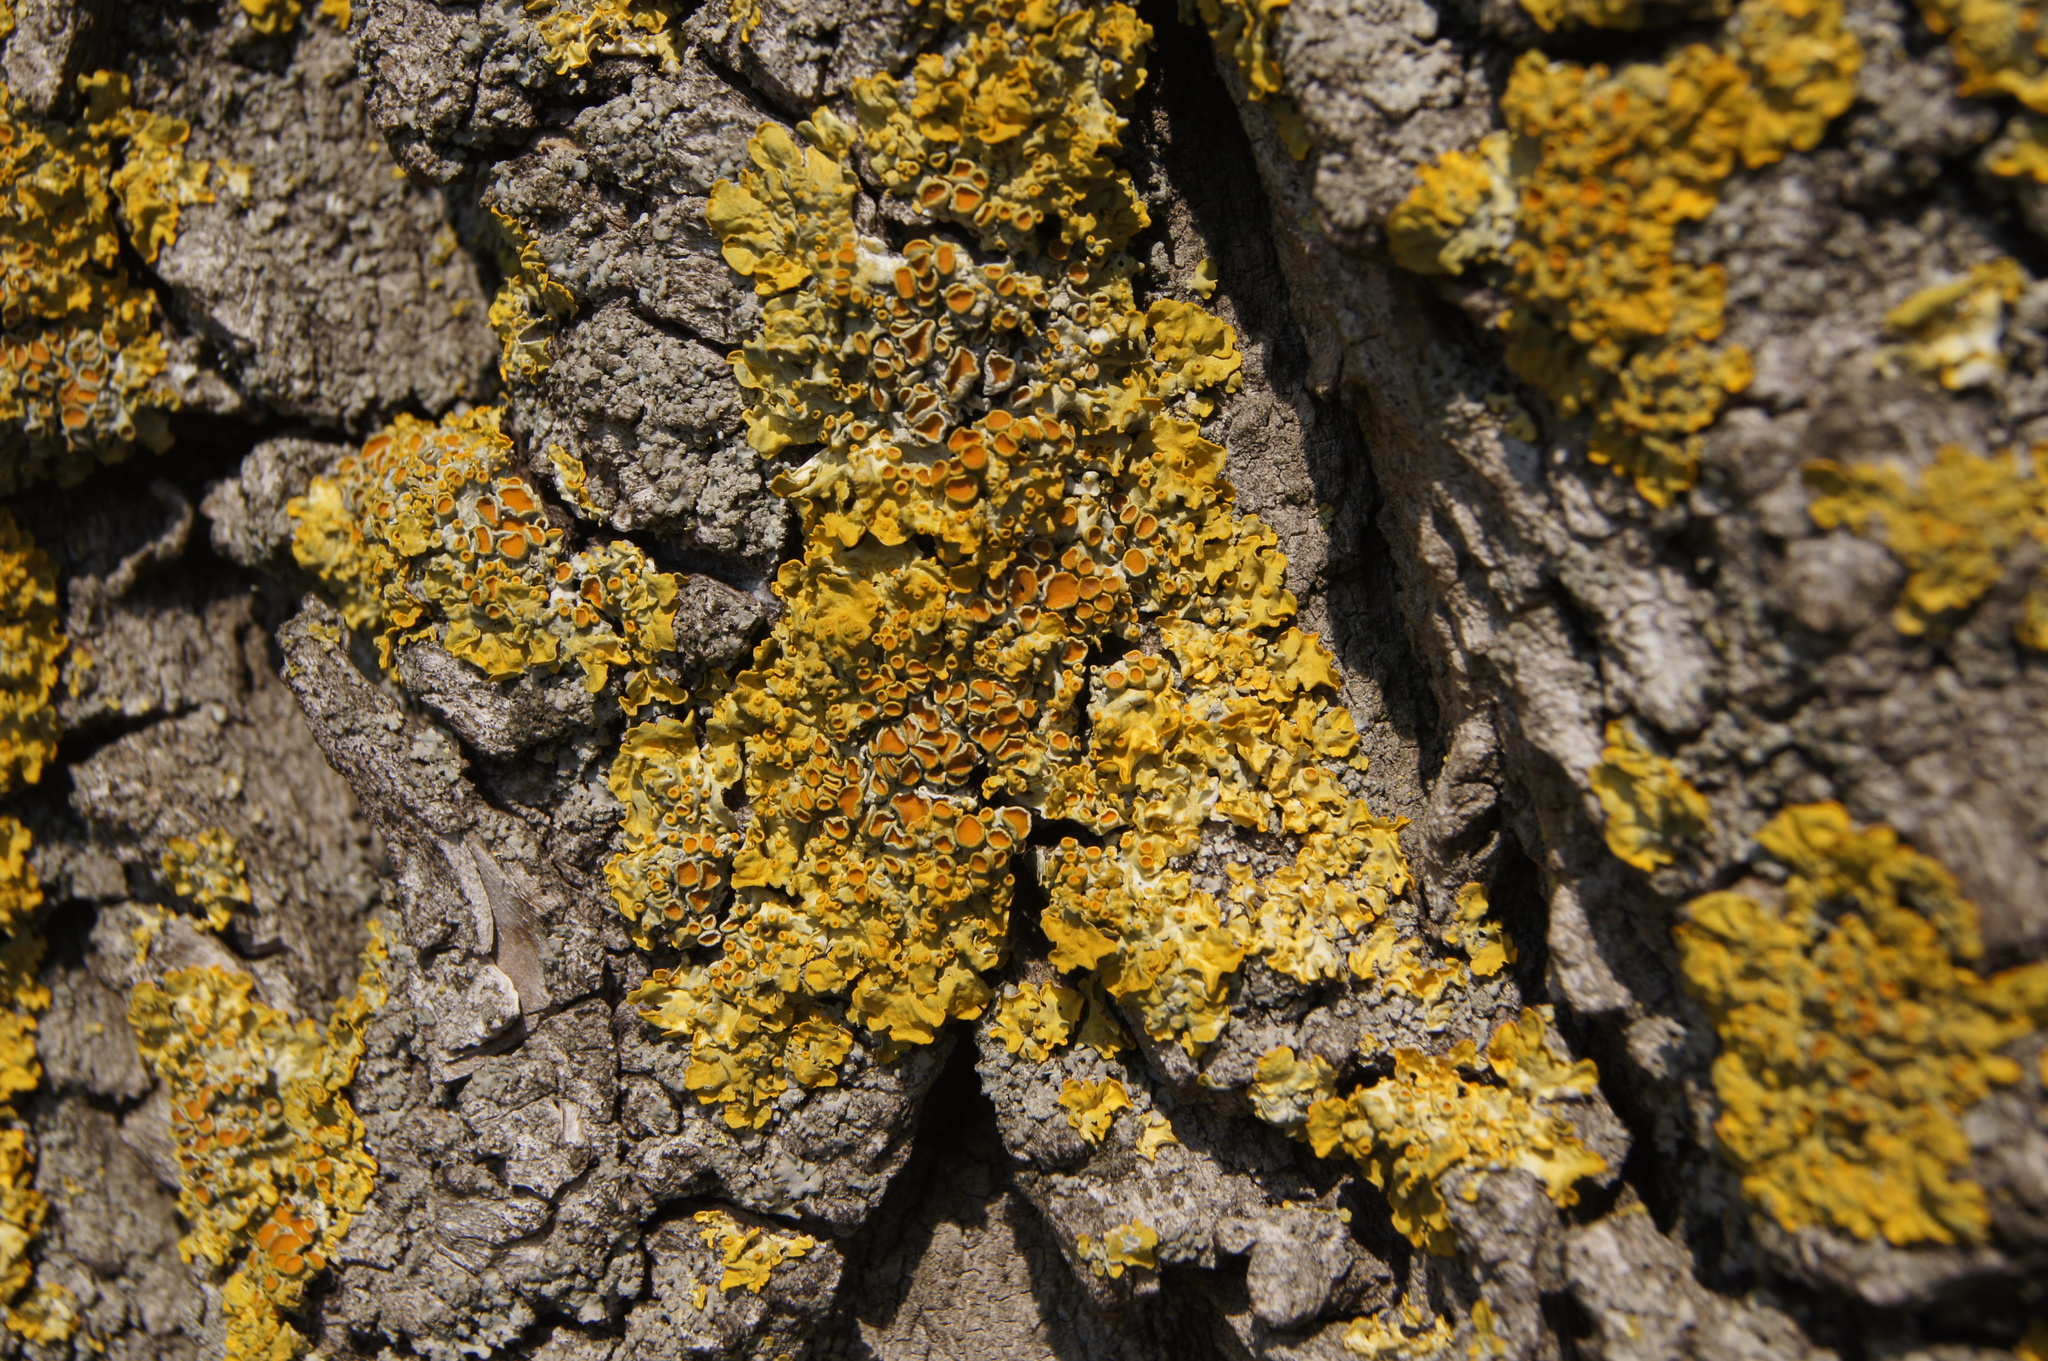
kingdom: Fungi
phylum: Ascomycota
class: Lecanoromycetes
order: Teloschistales
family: Teloschistaceae
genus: Xanthoria
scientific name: Xanthoria parietina
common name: Common orange lichen
